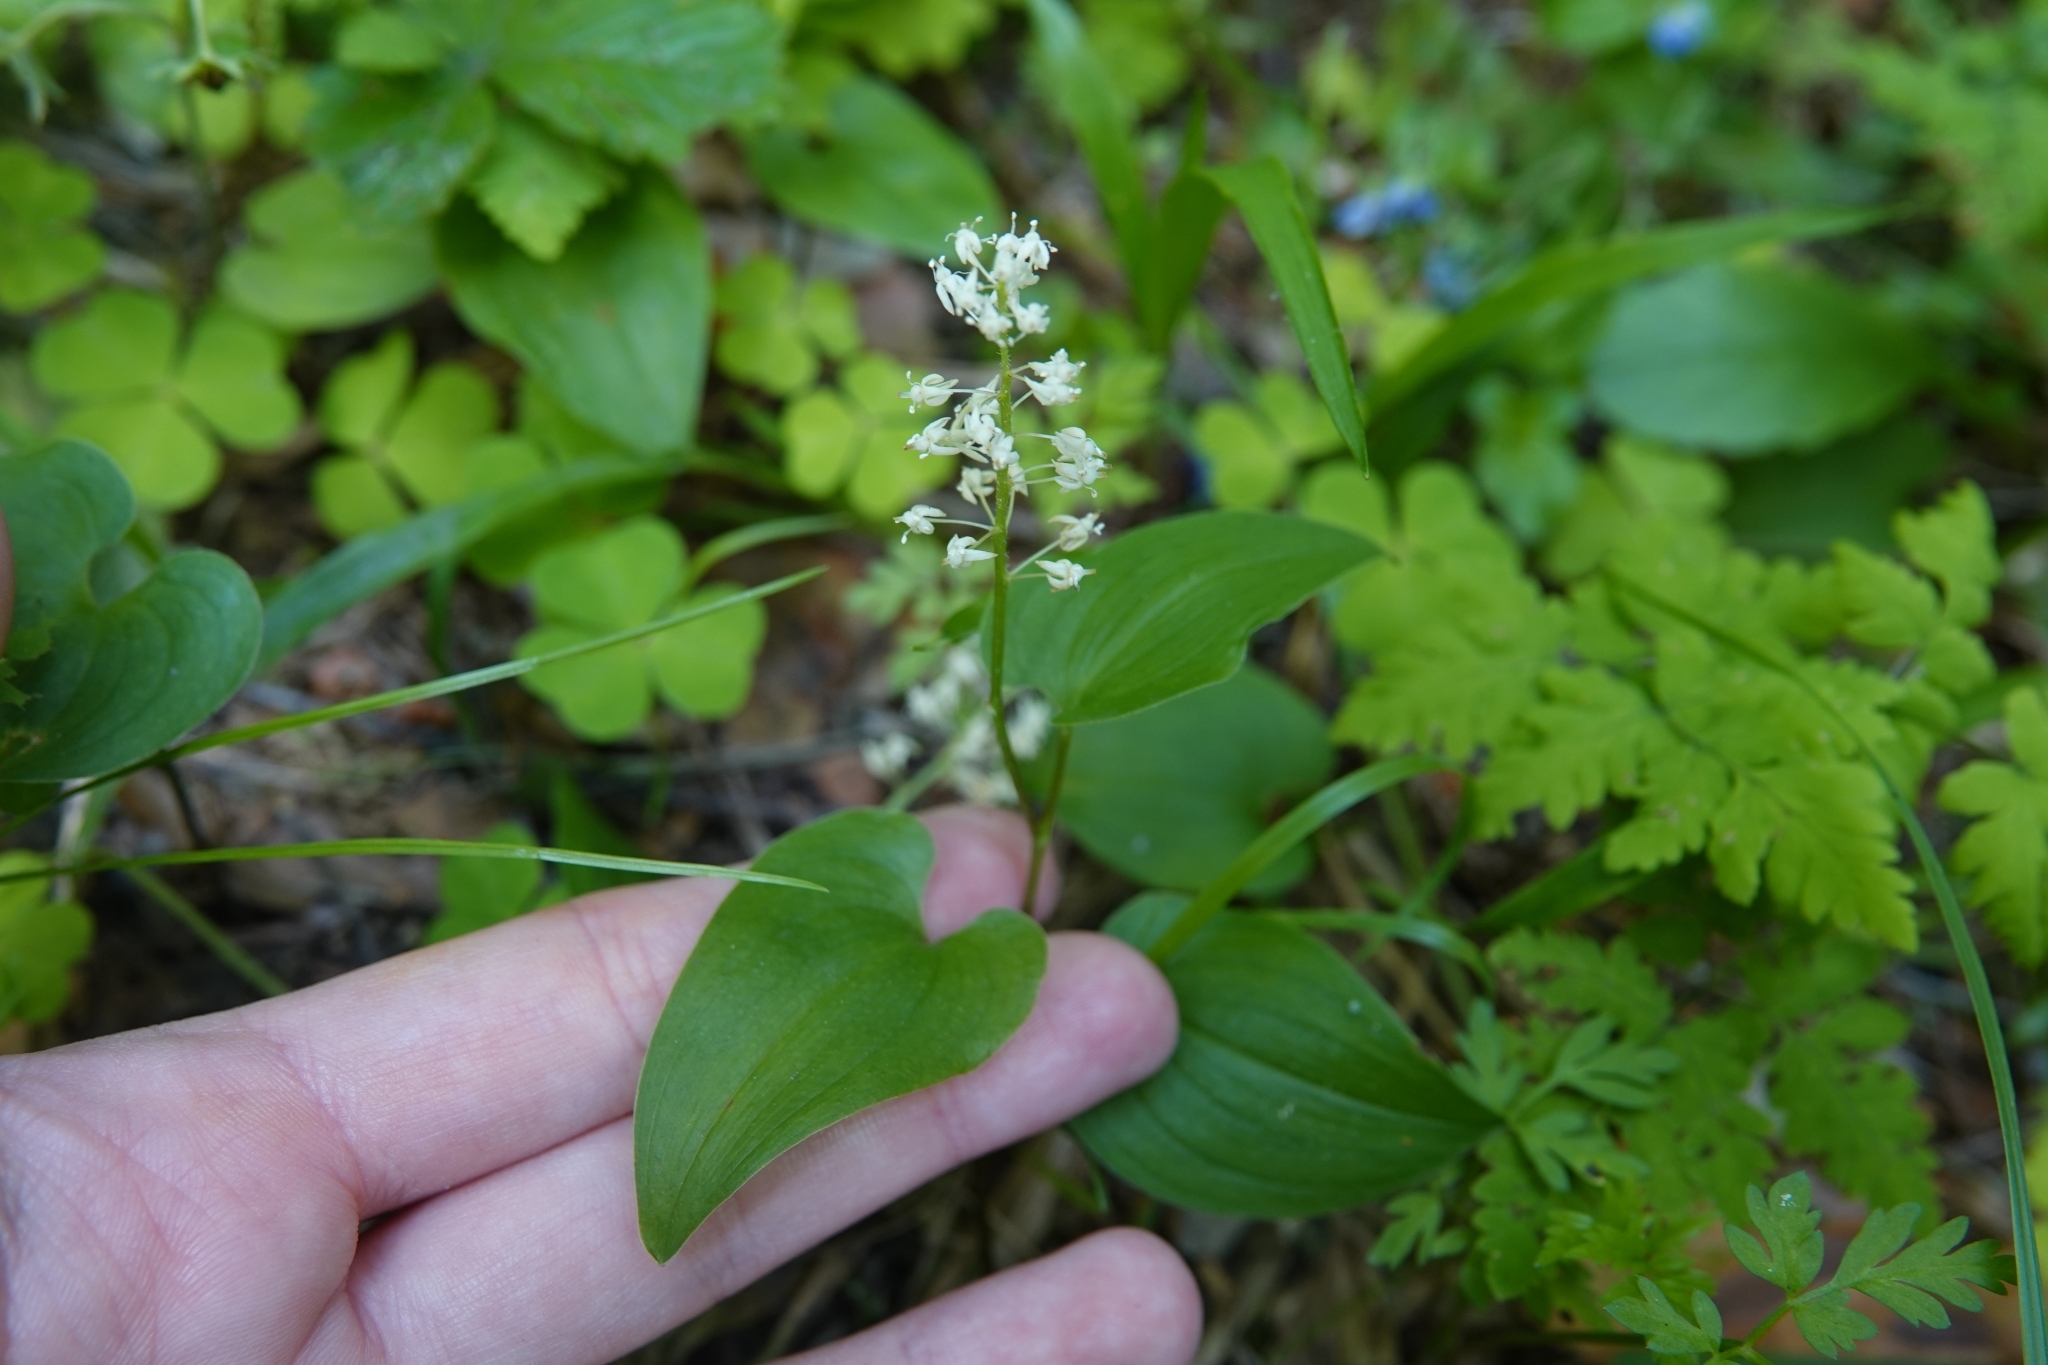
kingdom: Plantae
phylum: Tracheophyta
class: Liliopsida
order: Asparagales
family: Asparagaceae
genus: Maianthemum
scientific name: Maianthemum bifolium
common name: May lily
